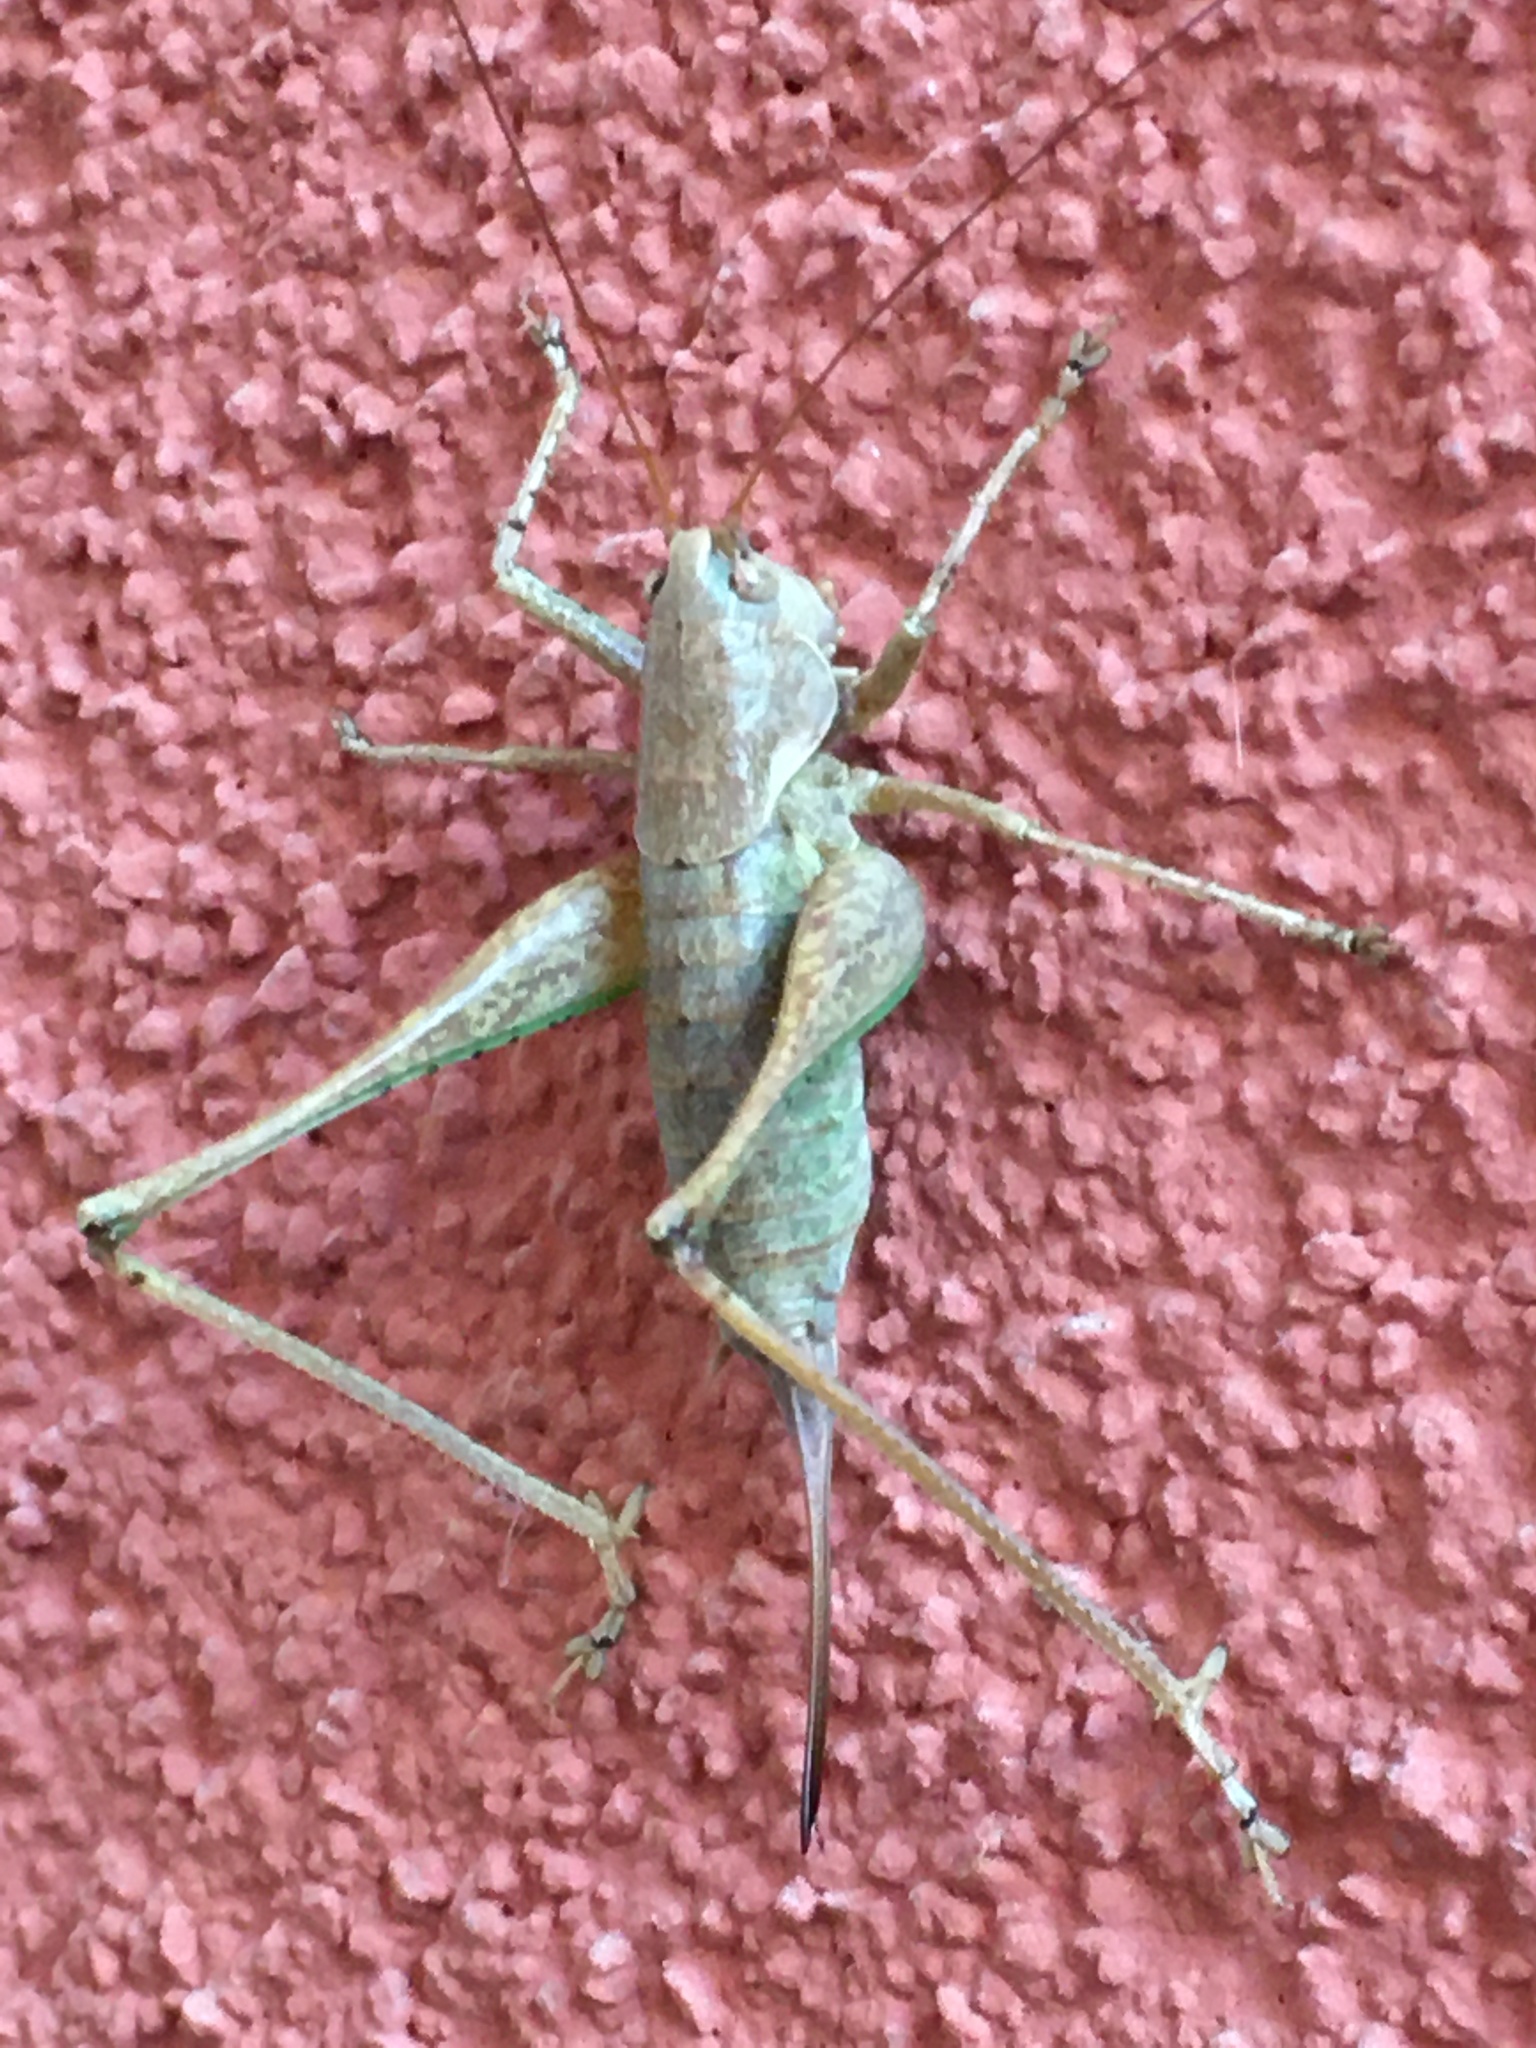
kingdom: Animalia
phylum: Arthropoda
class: Insecta
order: Orthoptera
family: Tettigoniidae
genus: Rhacocleis
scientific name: Rhacocleis annulata
